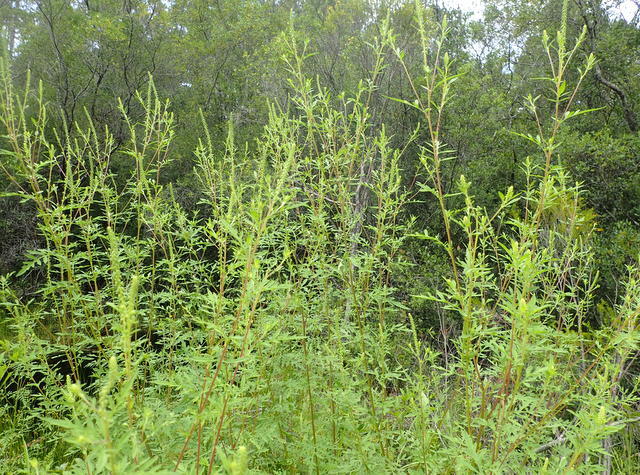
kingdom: Plantae
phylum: Tracheophyta
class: Magnoliopsida
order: Asterales
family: Asteraceae
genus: Ambrosia
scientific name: Ambrosia artemisiifolia
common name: Annual ragweed
